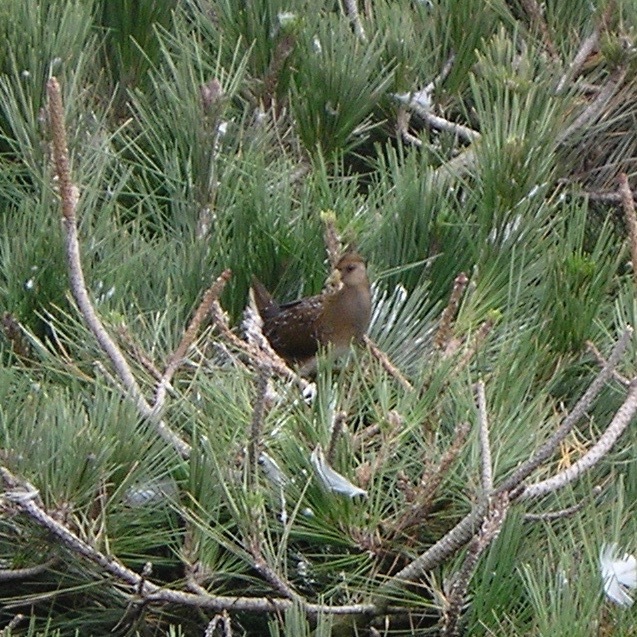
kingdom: Animalia
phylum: Chordata
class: Aves
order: Gruiformes
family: Rallidae
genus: Porzana
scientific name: Porzana carolina
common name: Sora
